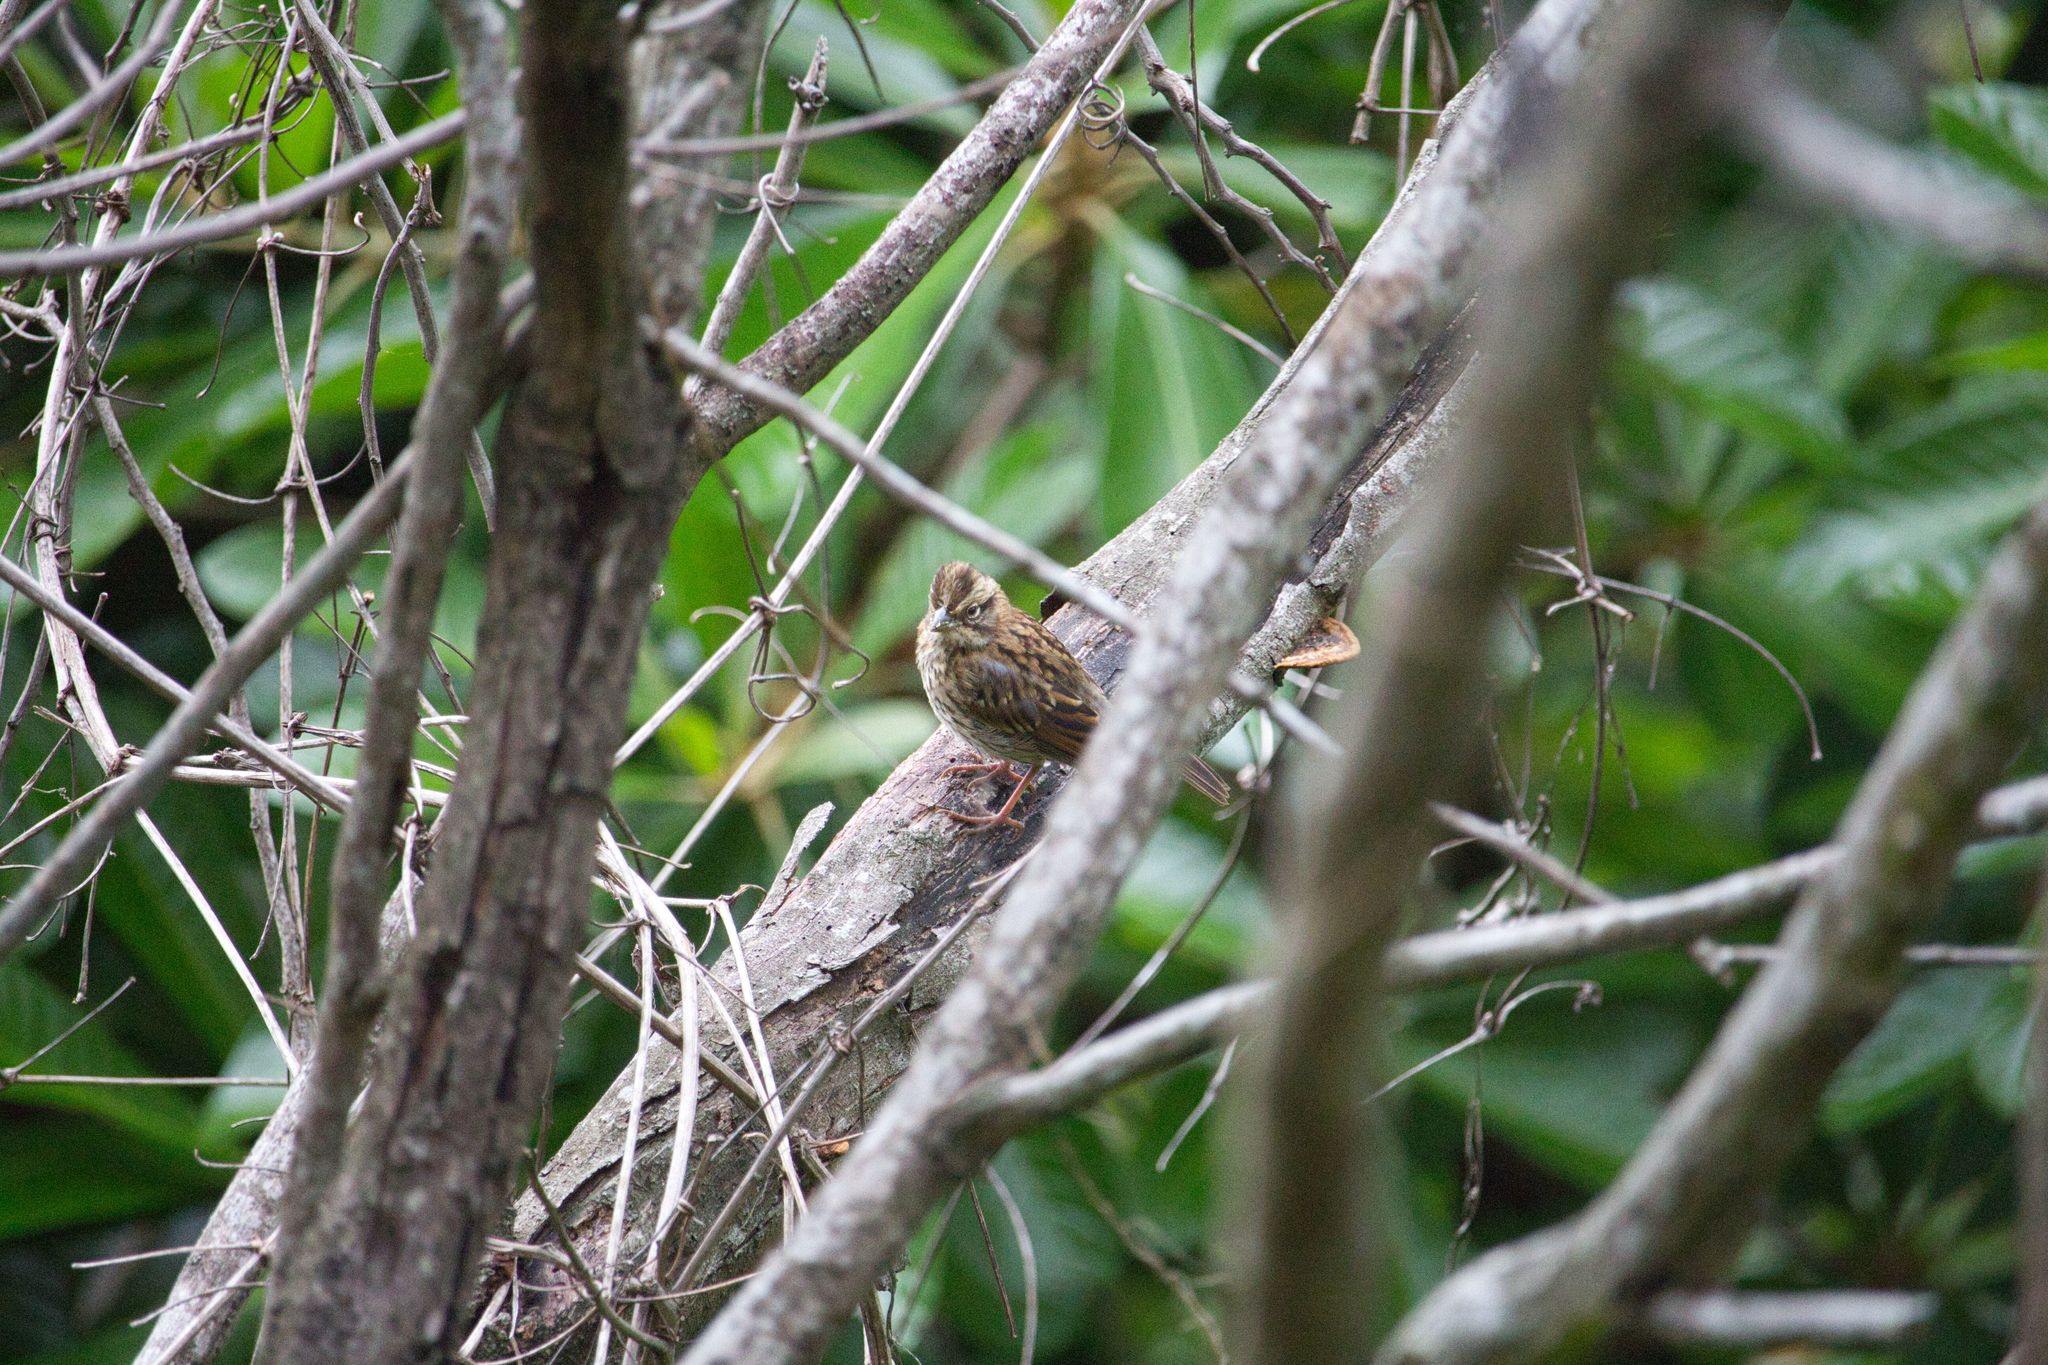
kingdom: Animalia
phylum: Chordata
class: Aves
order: Passeriformes
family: Passerellidae
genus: Zonotrichia
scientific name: Zonotrichia capensis
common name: Rufous-collared sparrow
